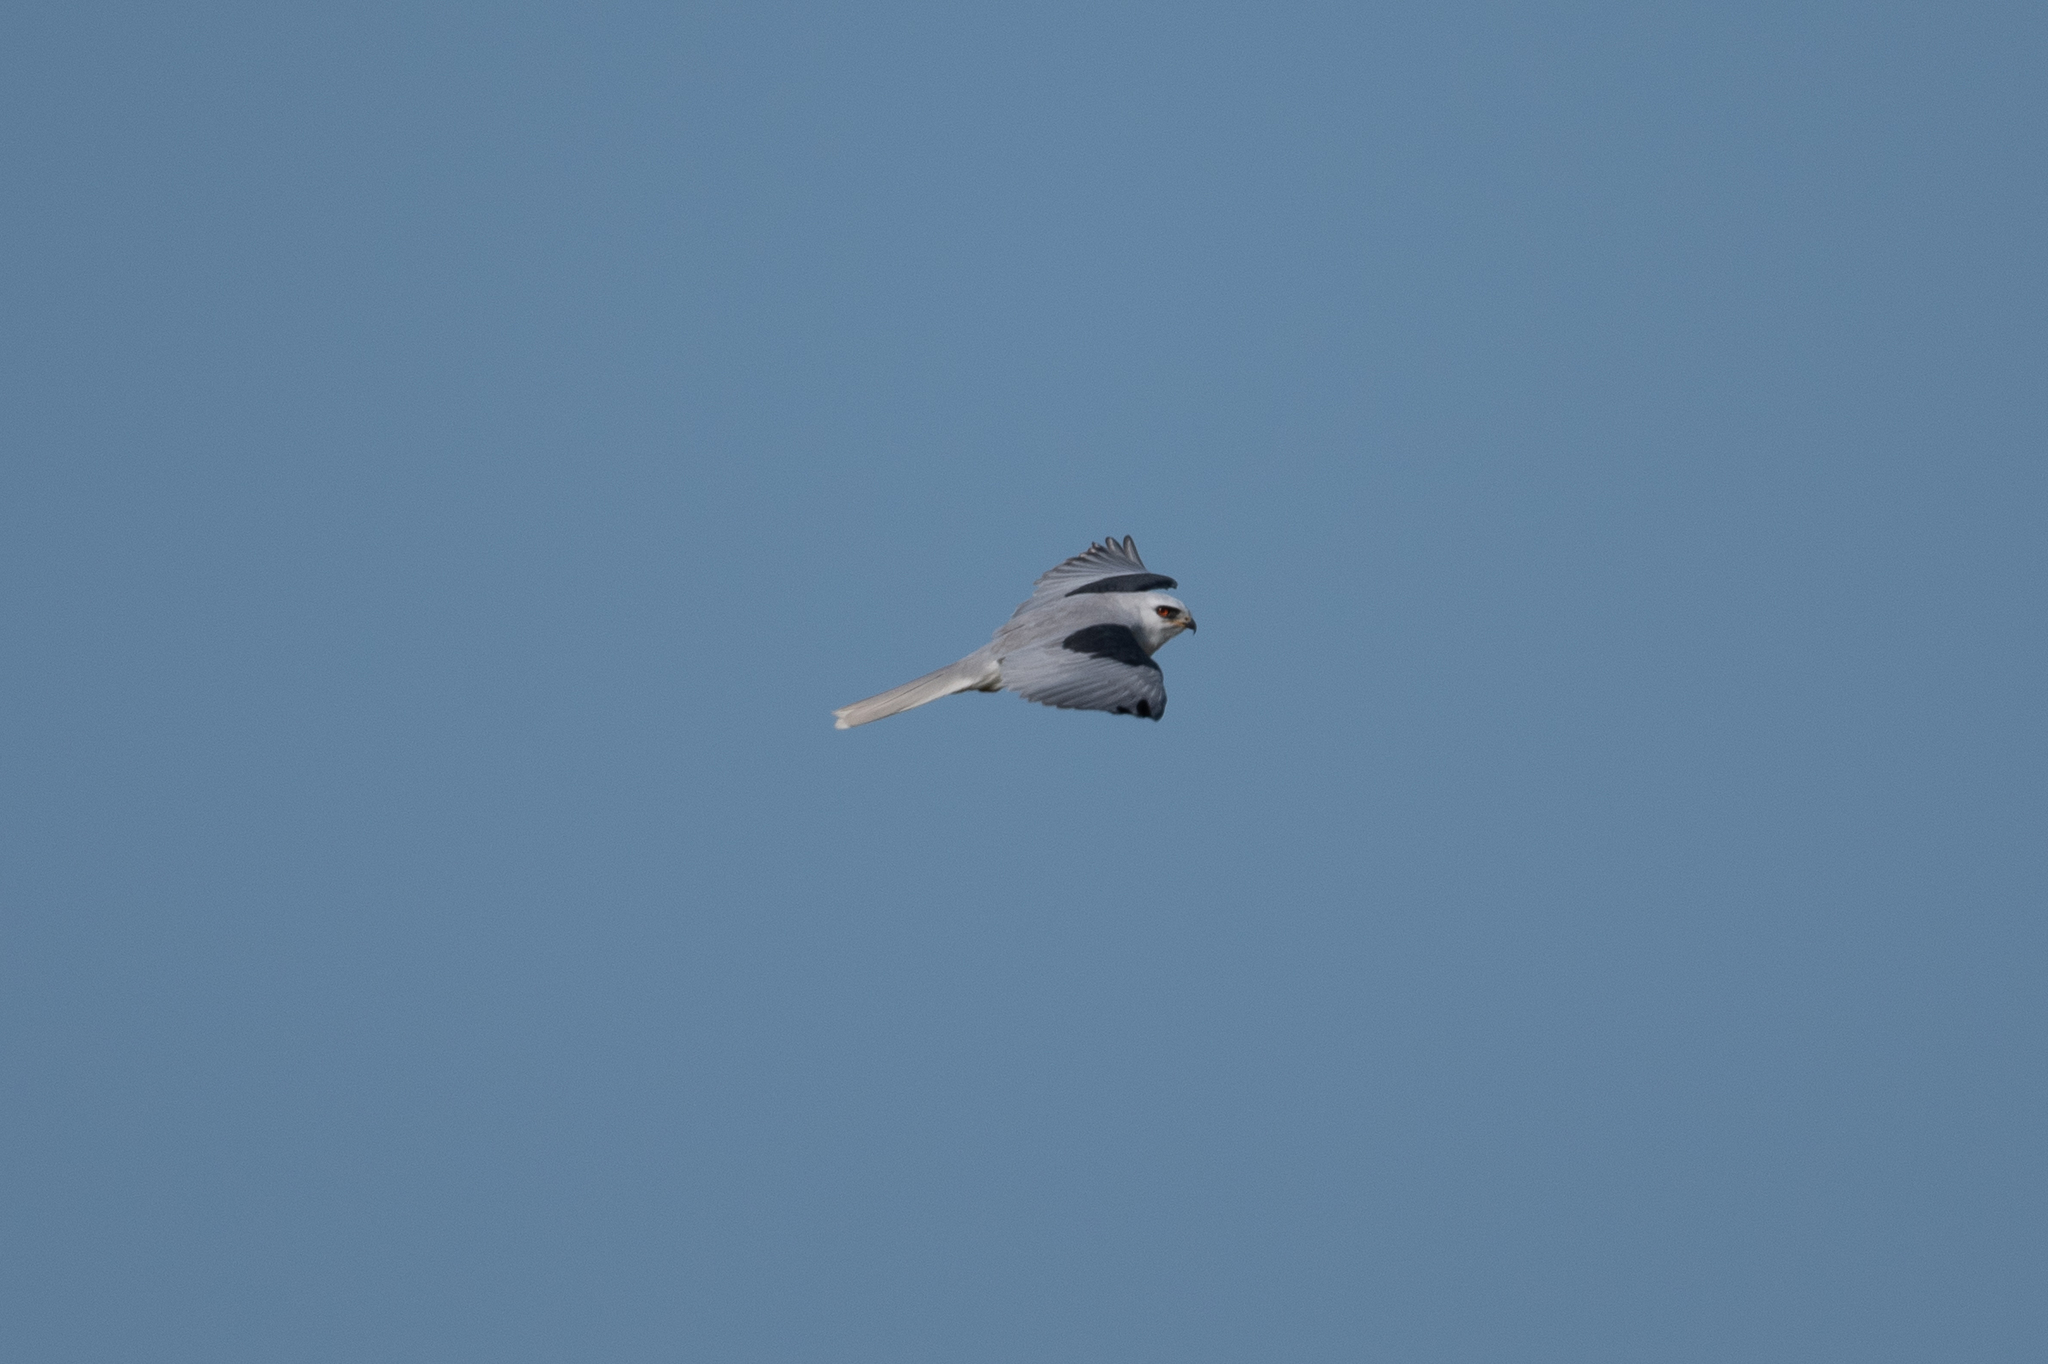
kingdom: Animalia
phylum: Chordata
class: Aves
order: Accipitriformes
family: Accipitridae
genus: Elanus
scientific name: Elanus leucurus
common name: White-tailed kite
